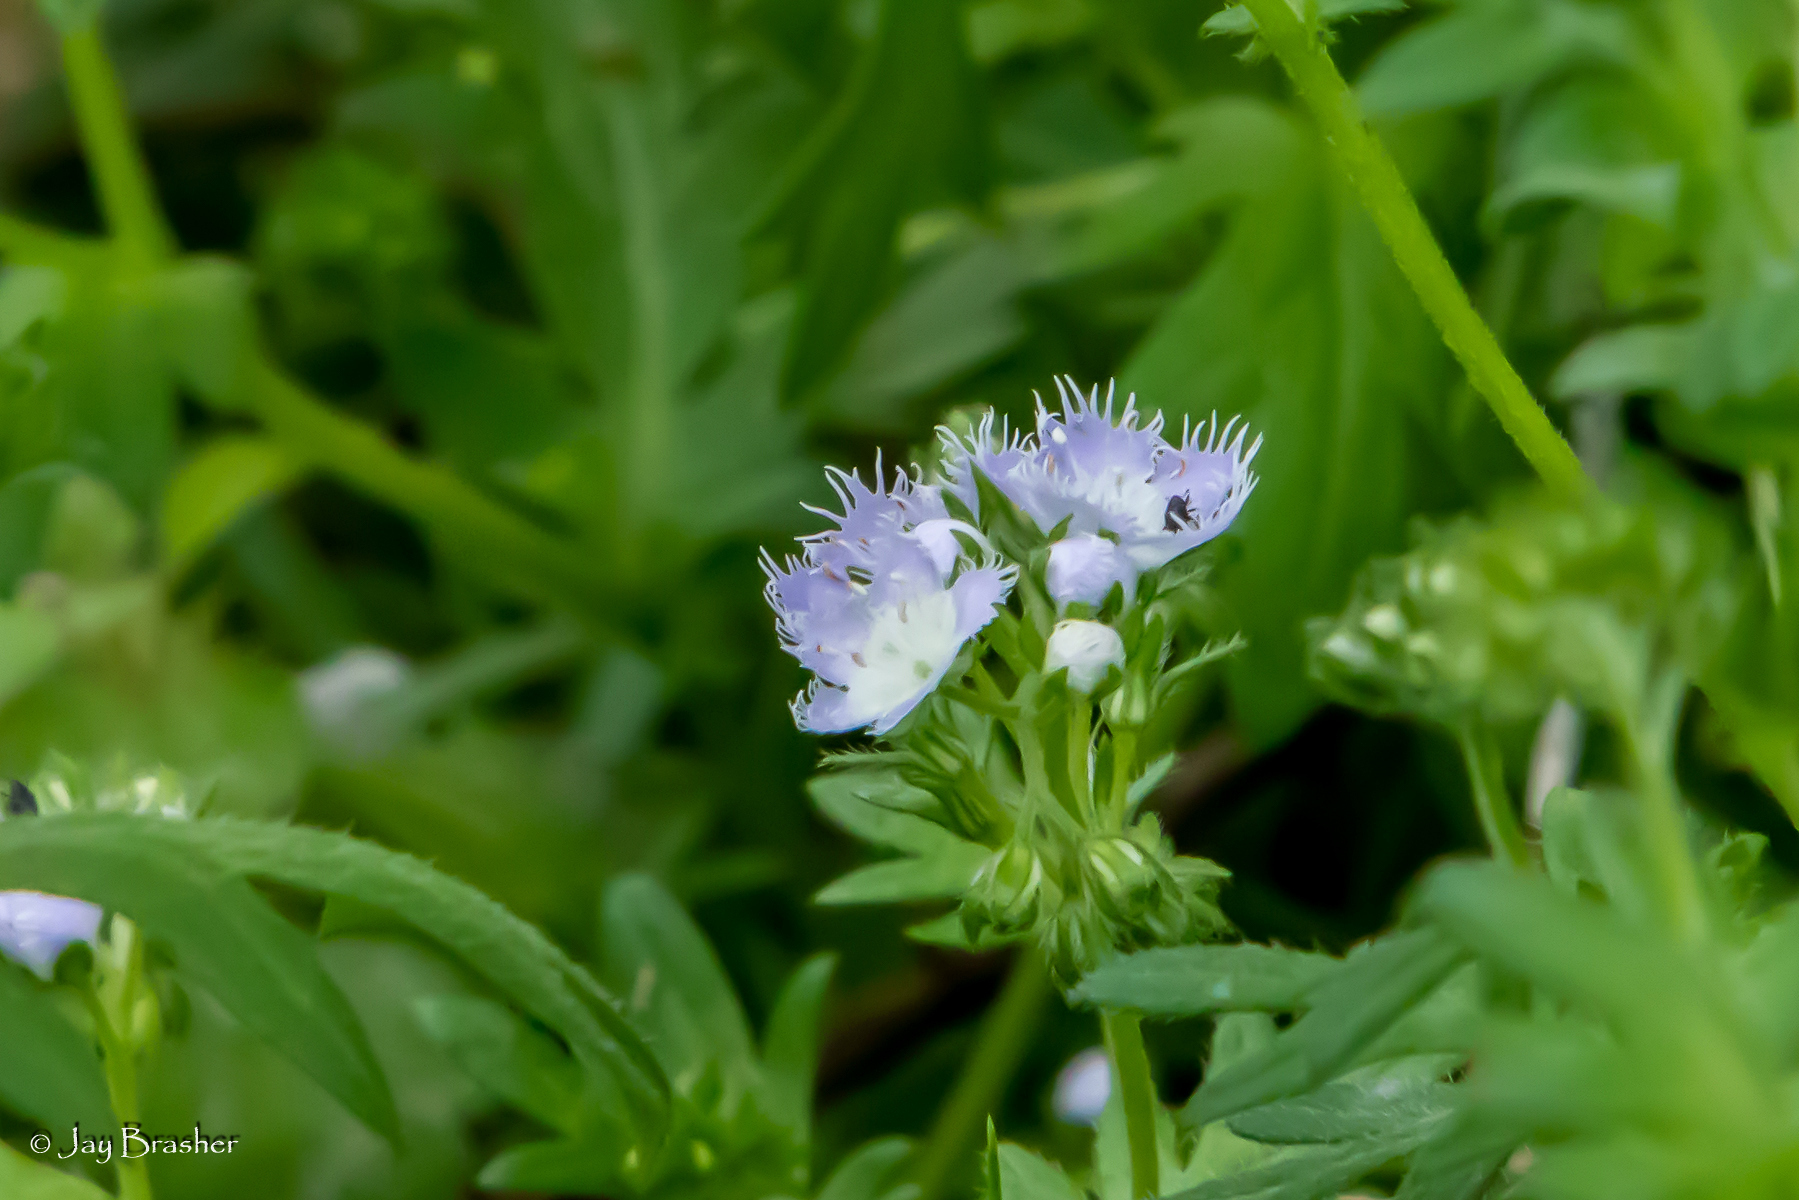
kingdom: Plantae
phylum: Tracheophyta
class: Magnoliopsida
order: Boraginales
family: Hydrophyllaceae
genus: Phacelia
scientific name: Phacelia purshii
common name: Miami-mist
